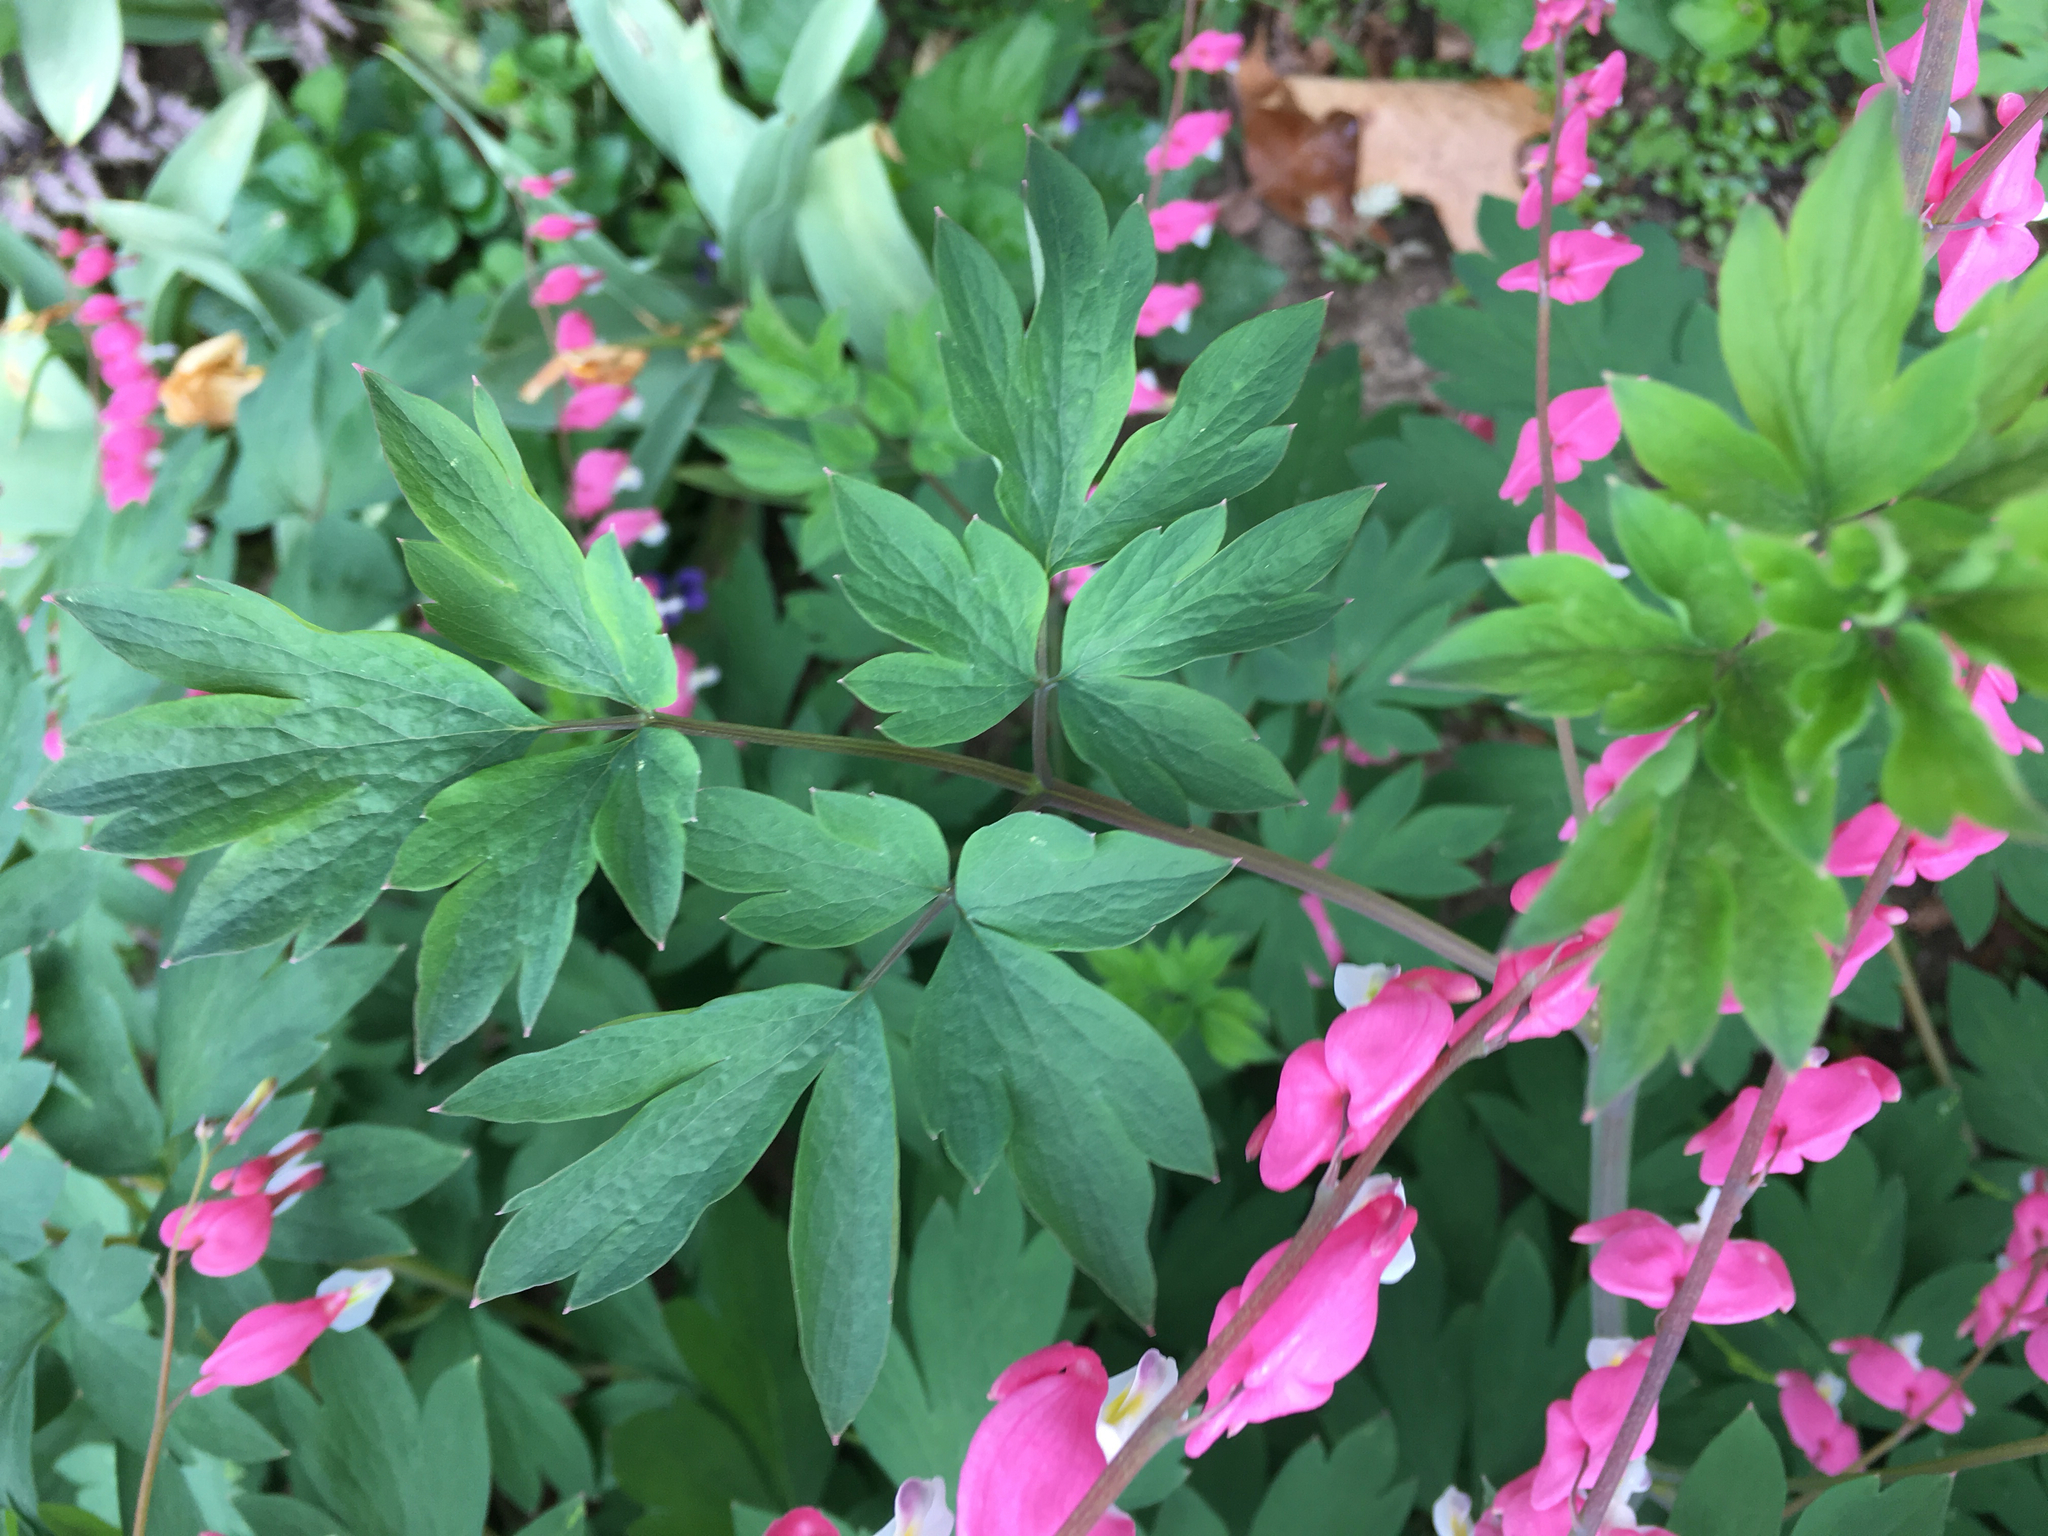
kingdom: Plantae
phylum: Tracheophyta
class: Magnoliopsida
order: Ranunculales
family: Papaveraceae
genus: Lamprocapnos
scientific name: Lamprocapnos spectabilis
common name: Asian bleeding-heart
